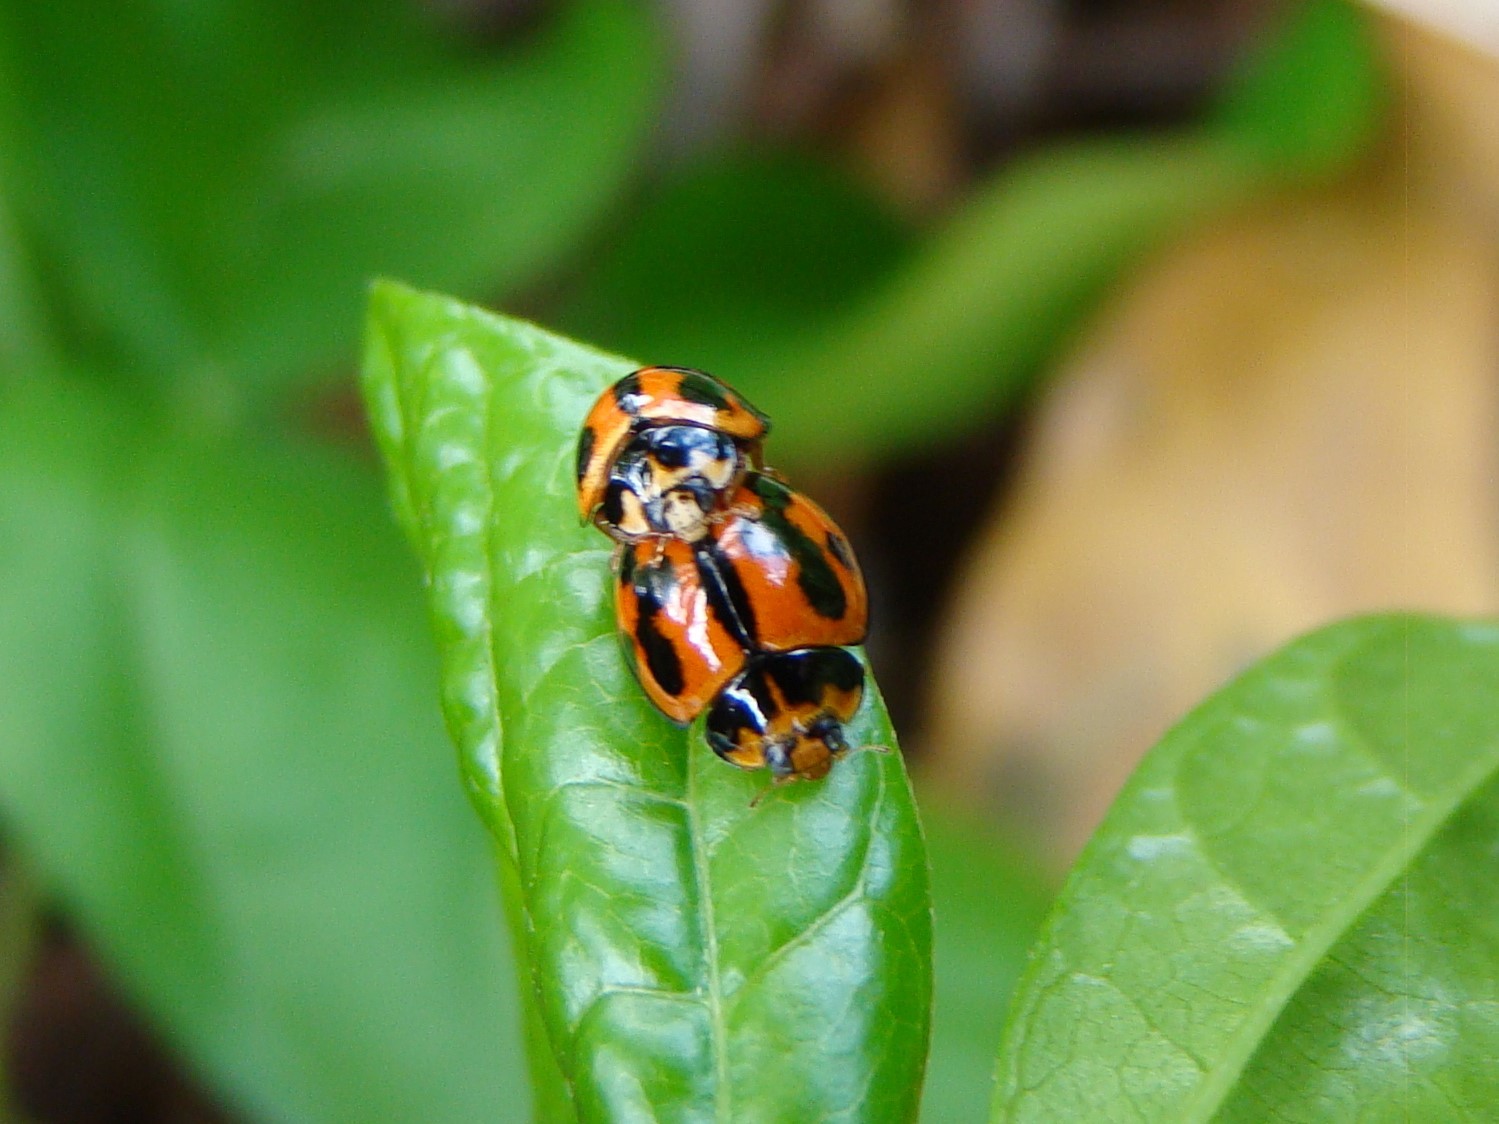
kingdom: Animalia
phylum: Arthropoda
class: Insecta
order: Coleoptera
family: Coccinellidae
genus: Coelophora
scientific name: Coelophora inaequalis
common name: Common australian lady beetle
